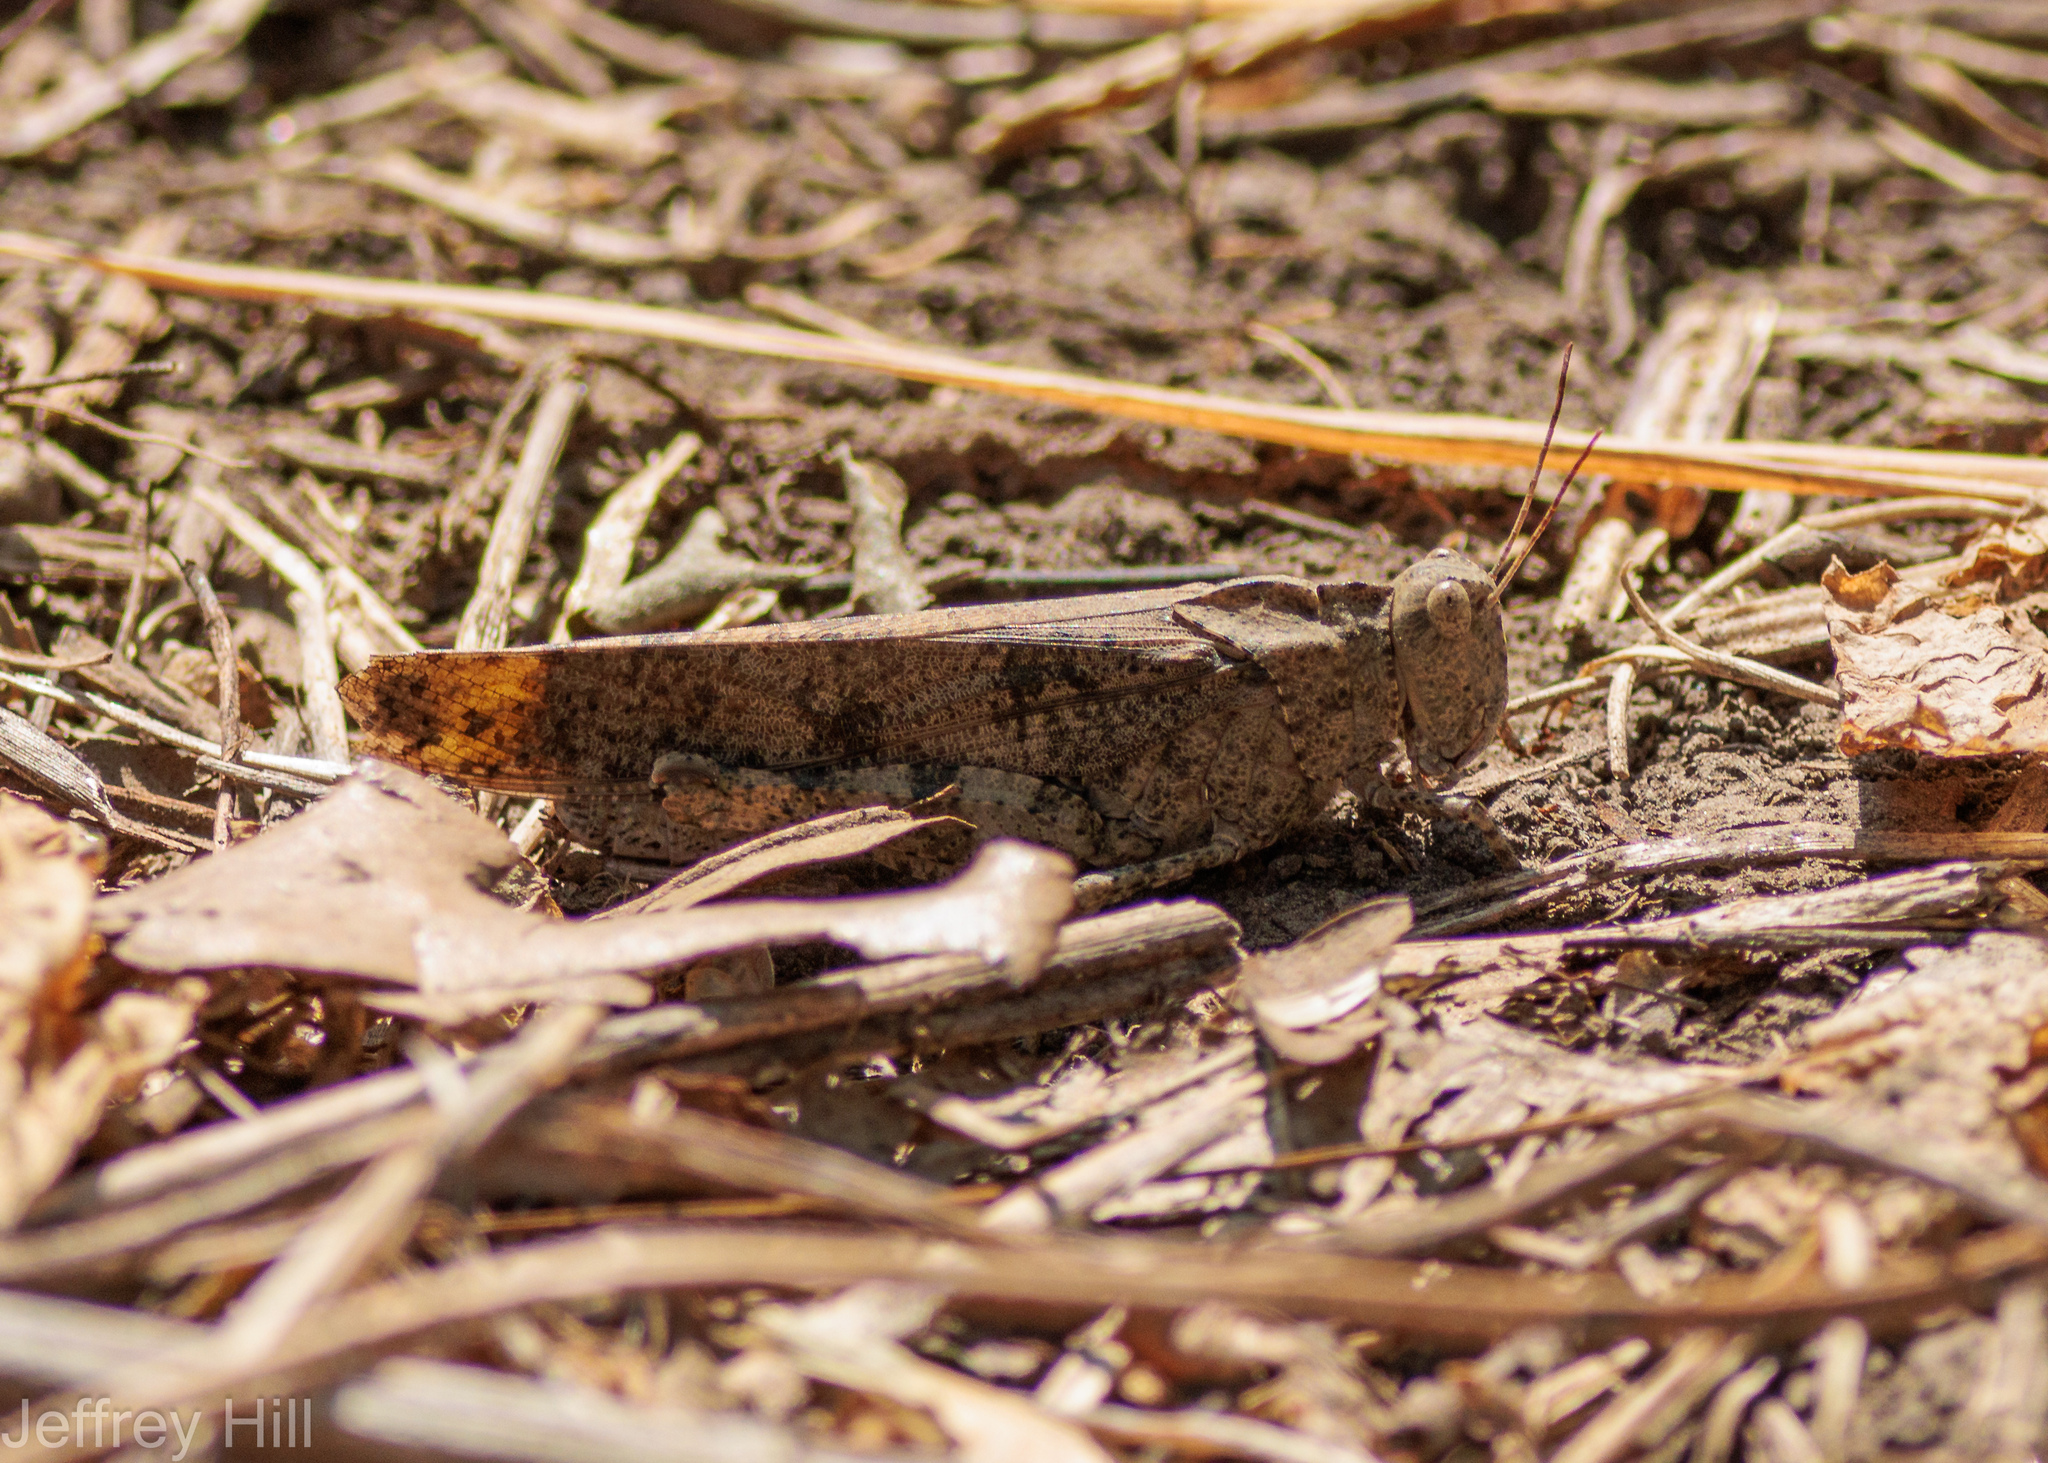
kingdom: Animalia
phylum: Arthropoda
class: Insecta
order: Orthoptera
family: Acrididae
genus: Dissosteira
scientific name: Dissosteira carolina
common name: Carolina grasshopper
